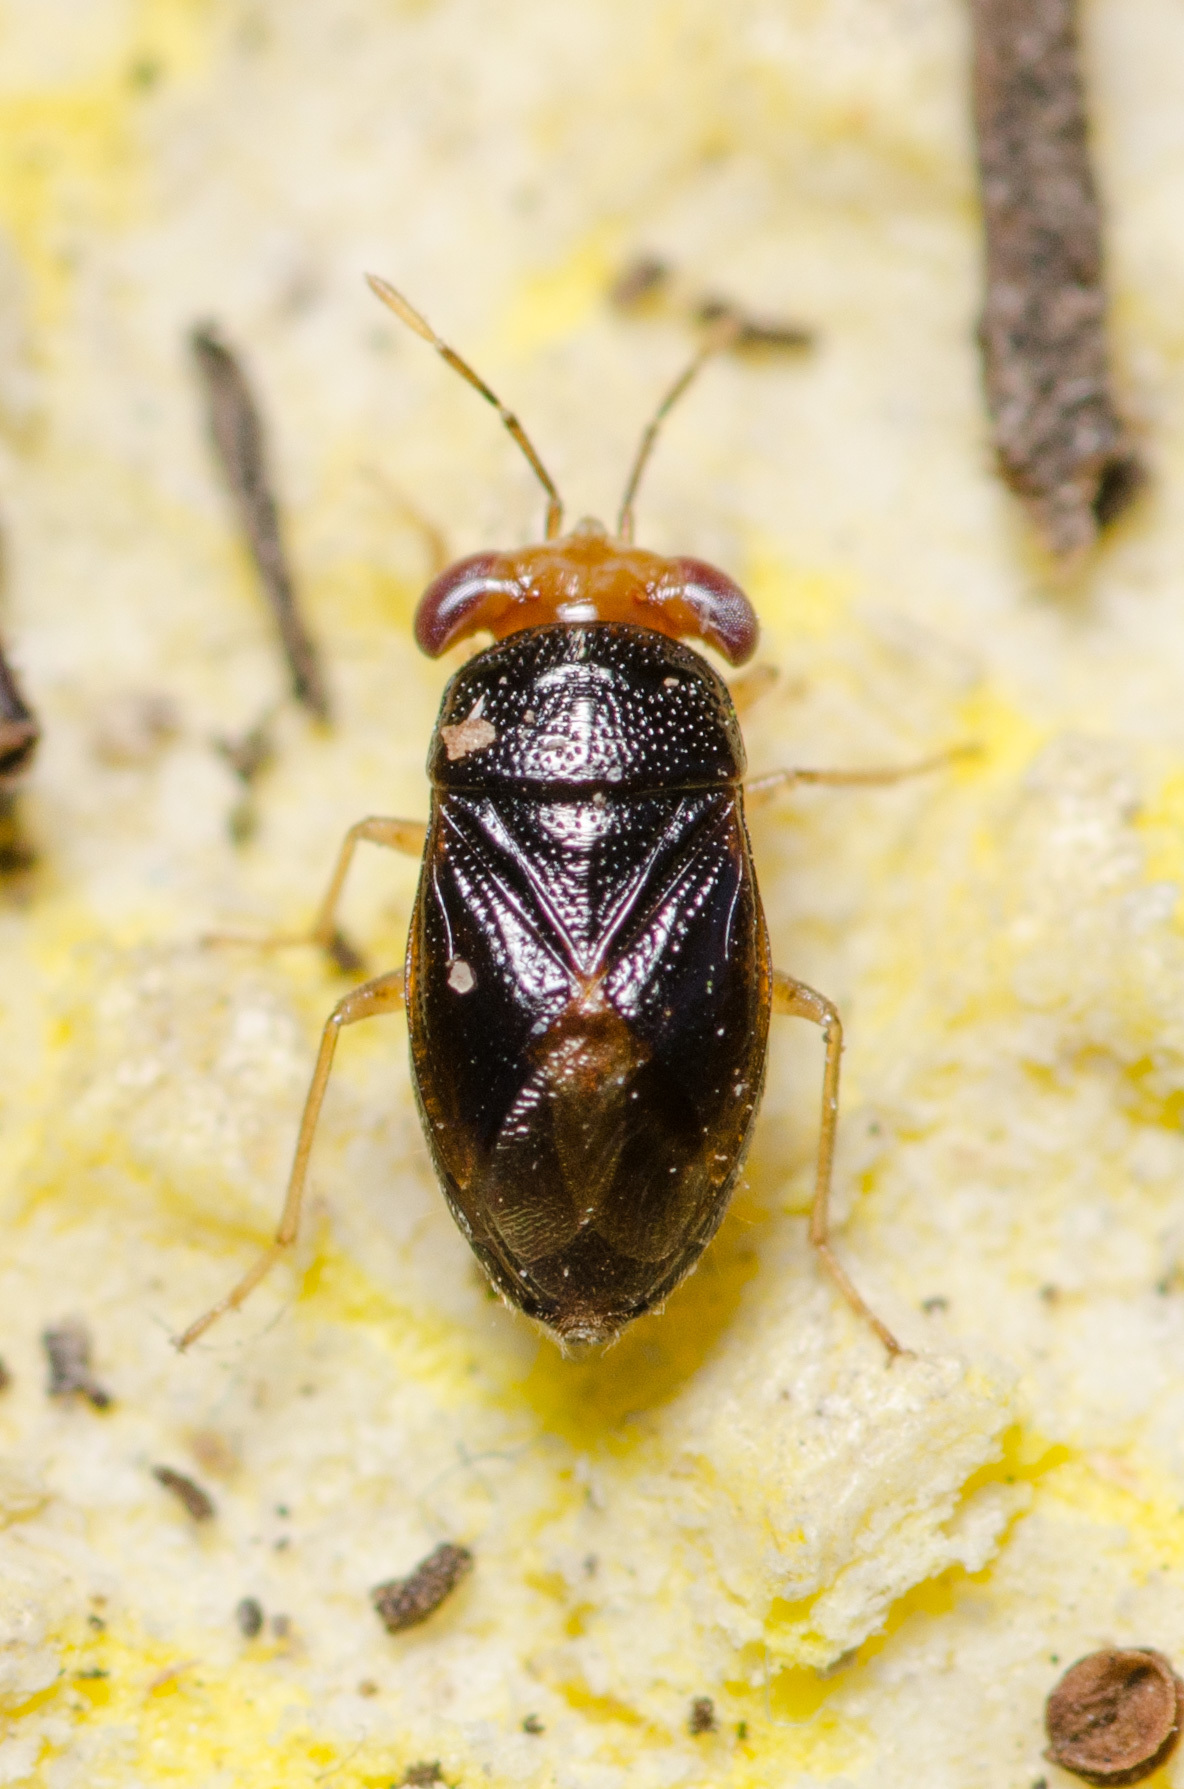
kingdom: Animalia
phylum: Arthropoda
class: Insecta
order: Hemiptera
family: Geocoridae
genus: Geocoris
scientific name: Geocoris scudderi
